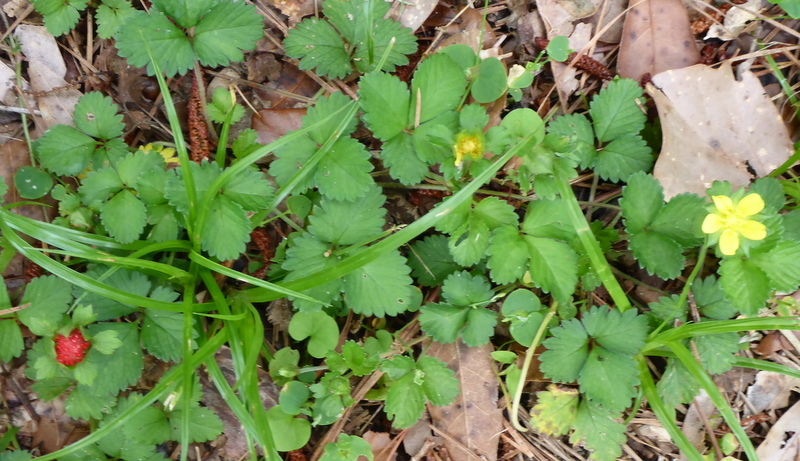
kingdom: Plantae
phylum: Tracheophyta
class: Magnoliopsida
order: Rosales
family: Rosaceae
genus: Potentilla
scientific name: Potentilla indica
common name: Yellow-flowered strawberry
